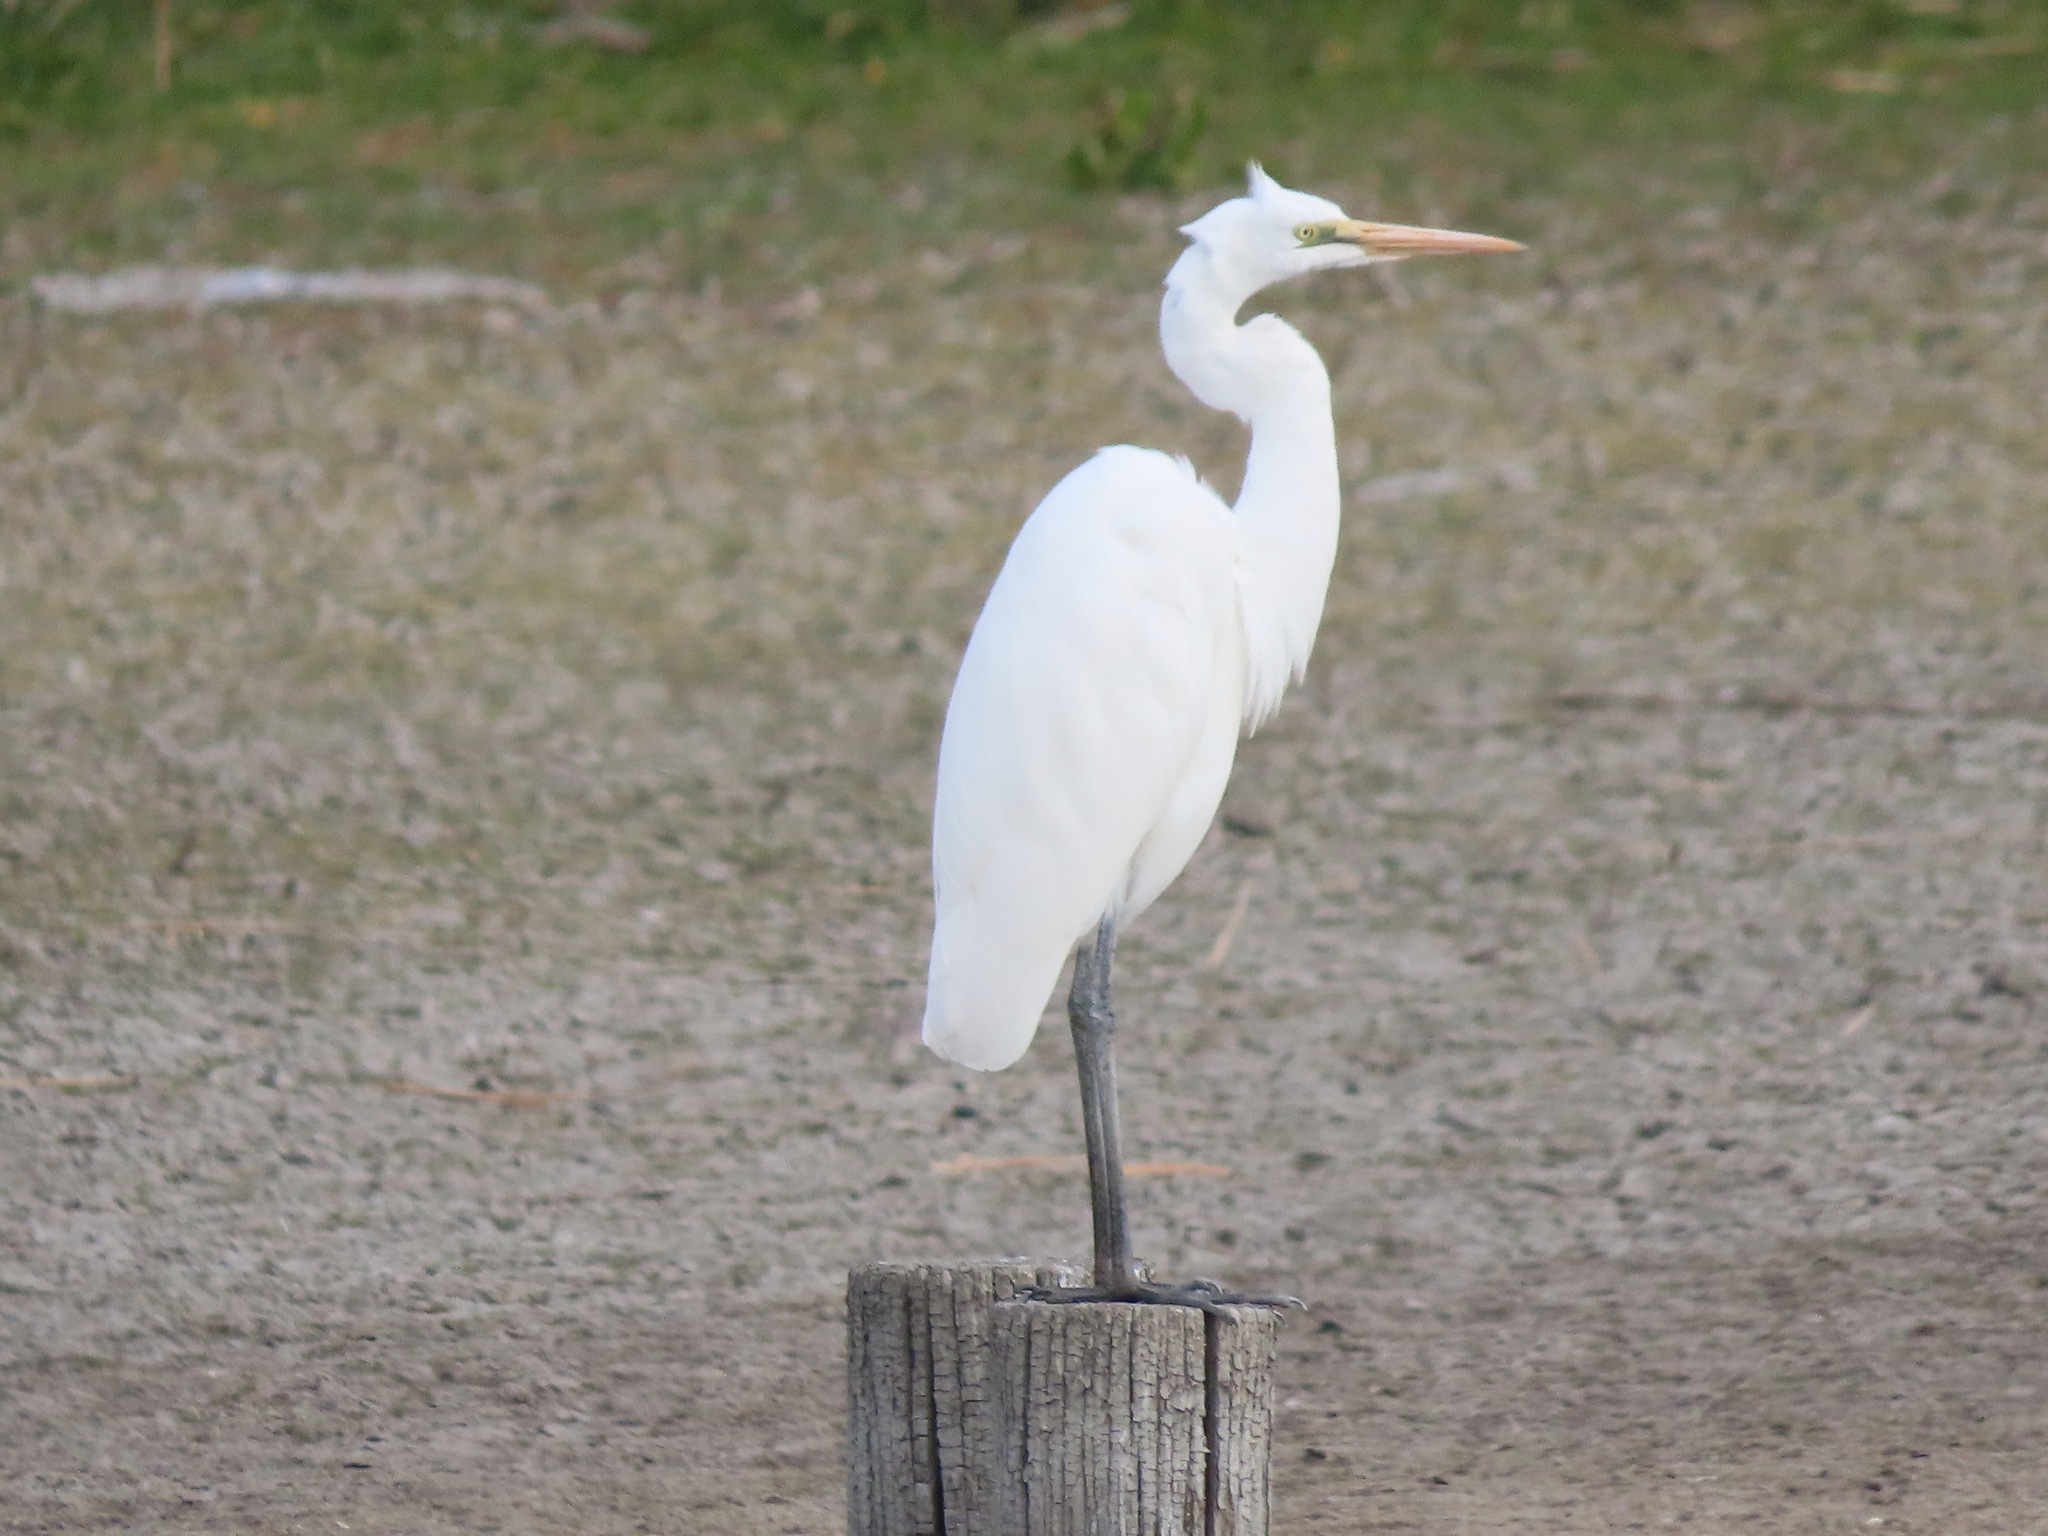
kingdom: Animalia
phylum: Chordata
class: Aves
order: Pelecaniformes
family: Ardeidae
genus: Ardea
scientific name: Ardea alba
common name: Great egret
